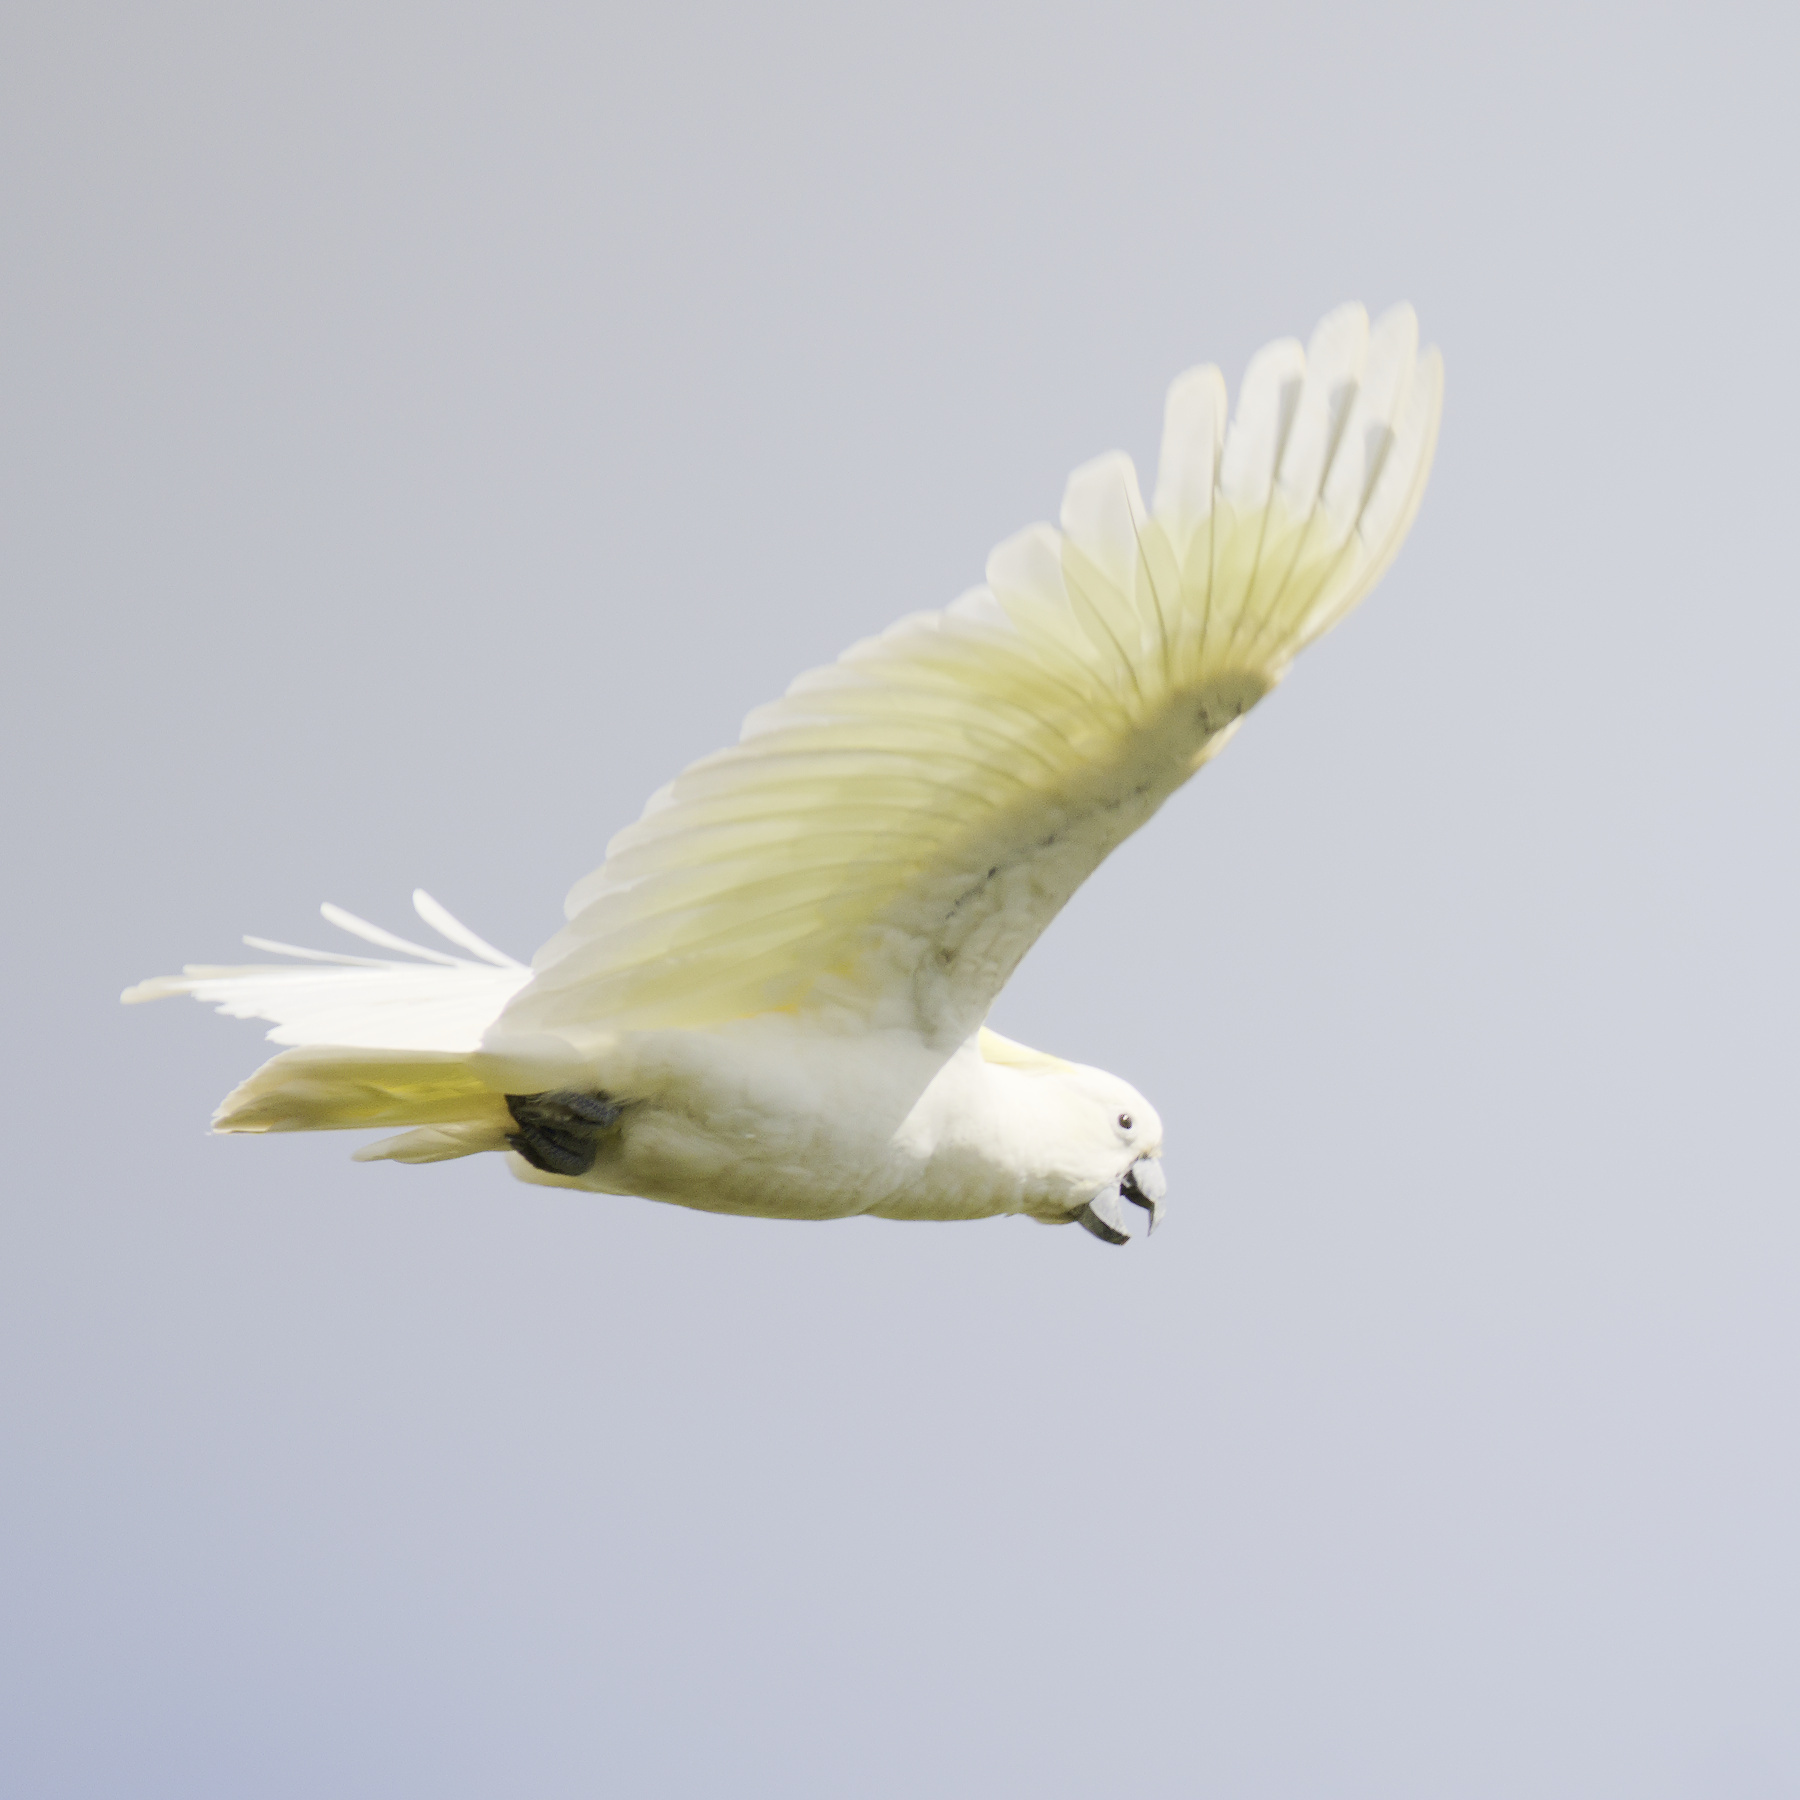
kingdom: Animalia
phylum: Chordata
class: Aves
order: Psittaciformes
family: Psittacidae
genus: Cacatua
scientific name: Cacatua galerita
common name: Sulphur-crested cockatoo
